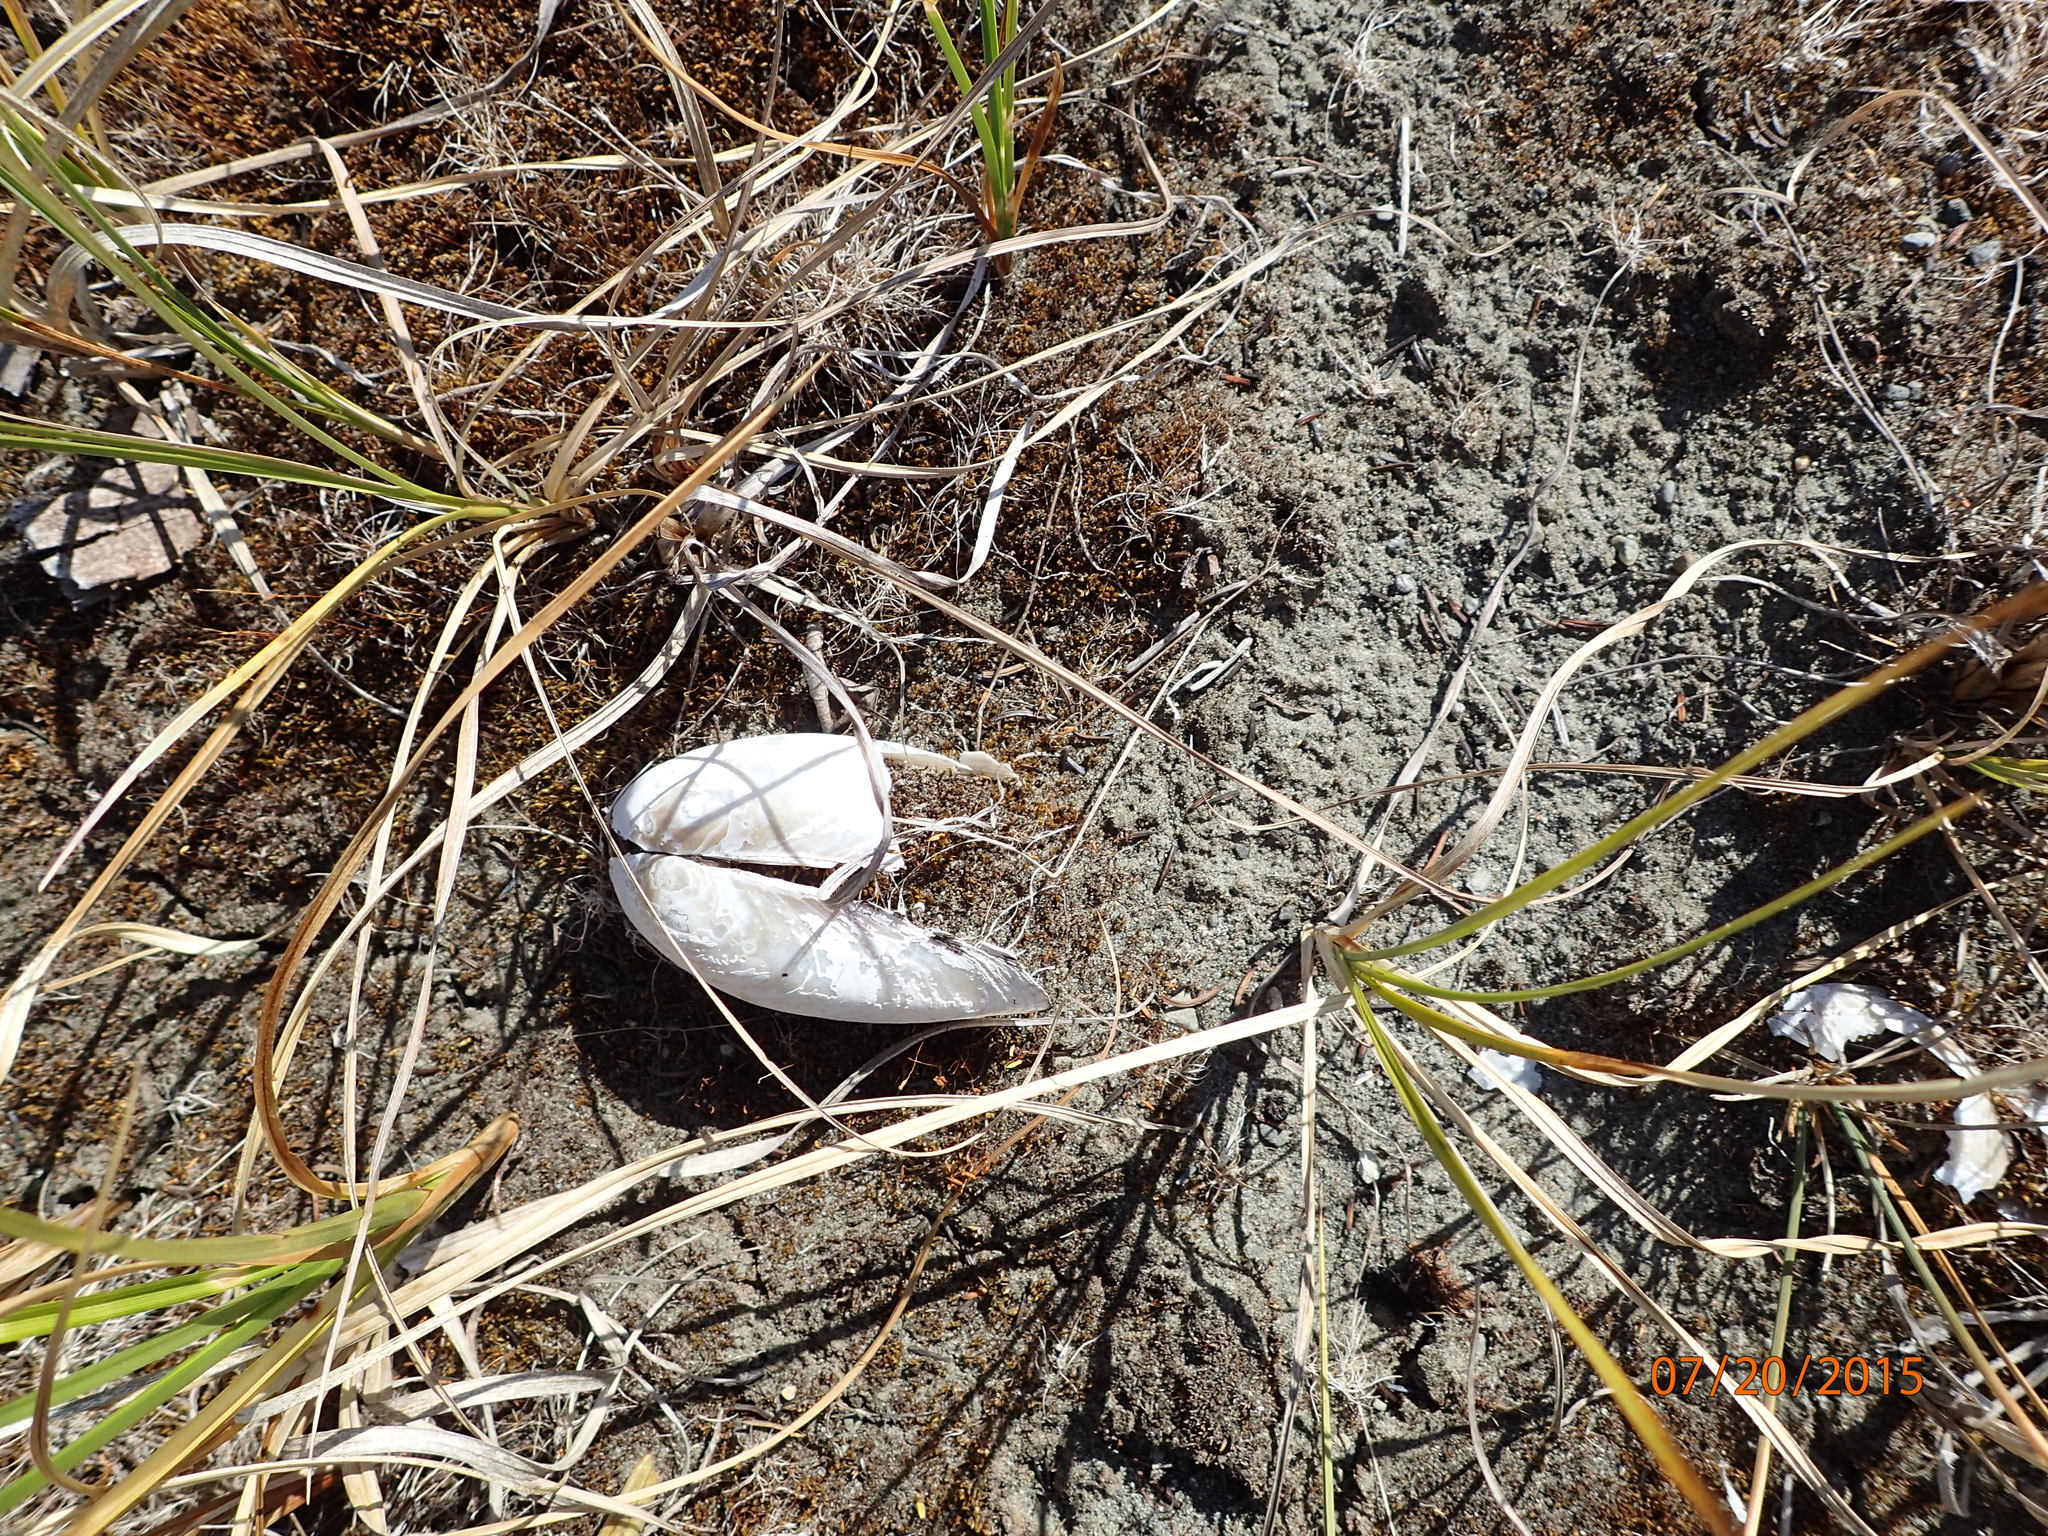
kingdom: Animalia
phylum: Mollusca
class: Bivalvia
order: Unionida
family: Unionidae
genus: Beringiana
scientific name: Beringiana beringiana
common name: Yukon floater
